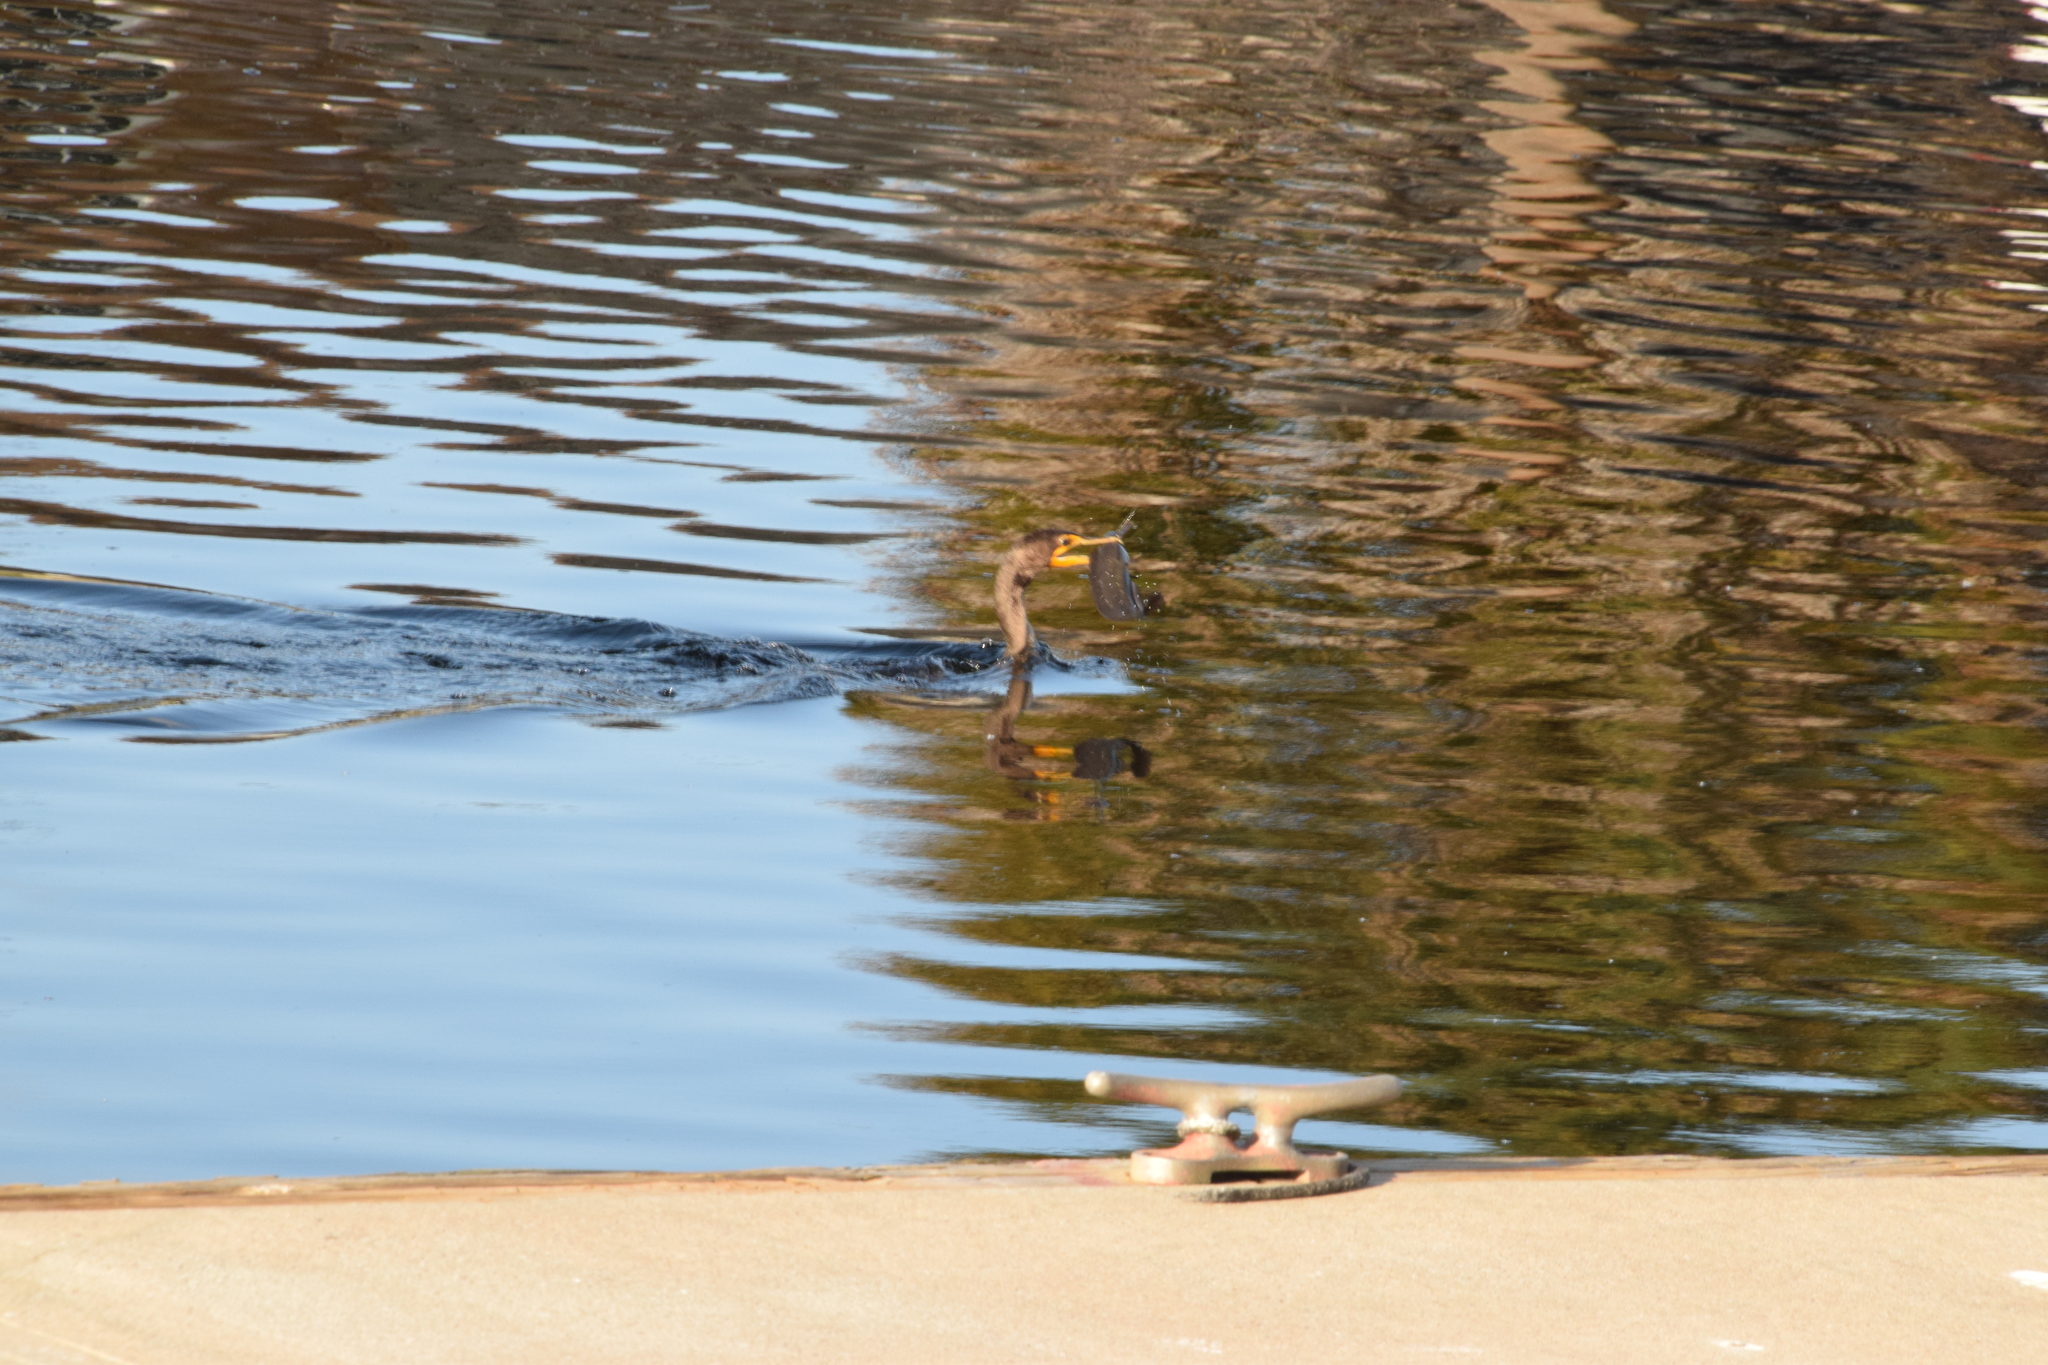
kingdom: Animalia
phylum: Chordata
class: Aves
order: Suliformes
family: Phalacrocoracidae
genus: Phalacrocorax
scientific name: Phalacrocorax auritus
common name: Double-crested cormorant
